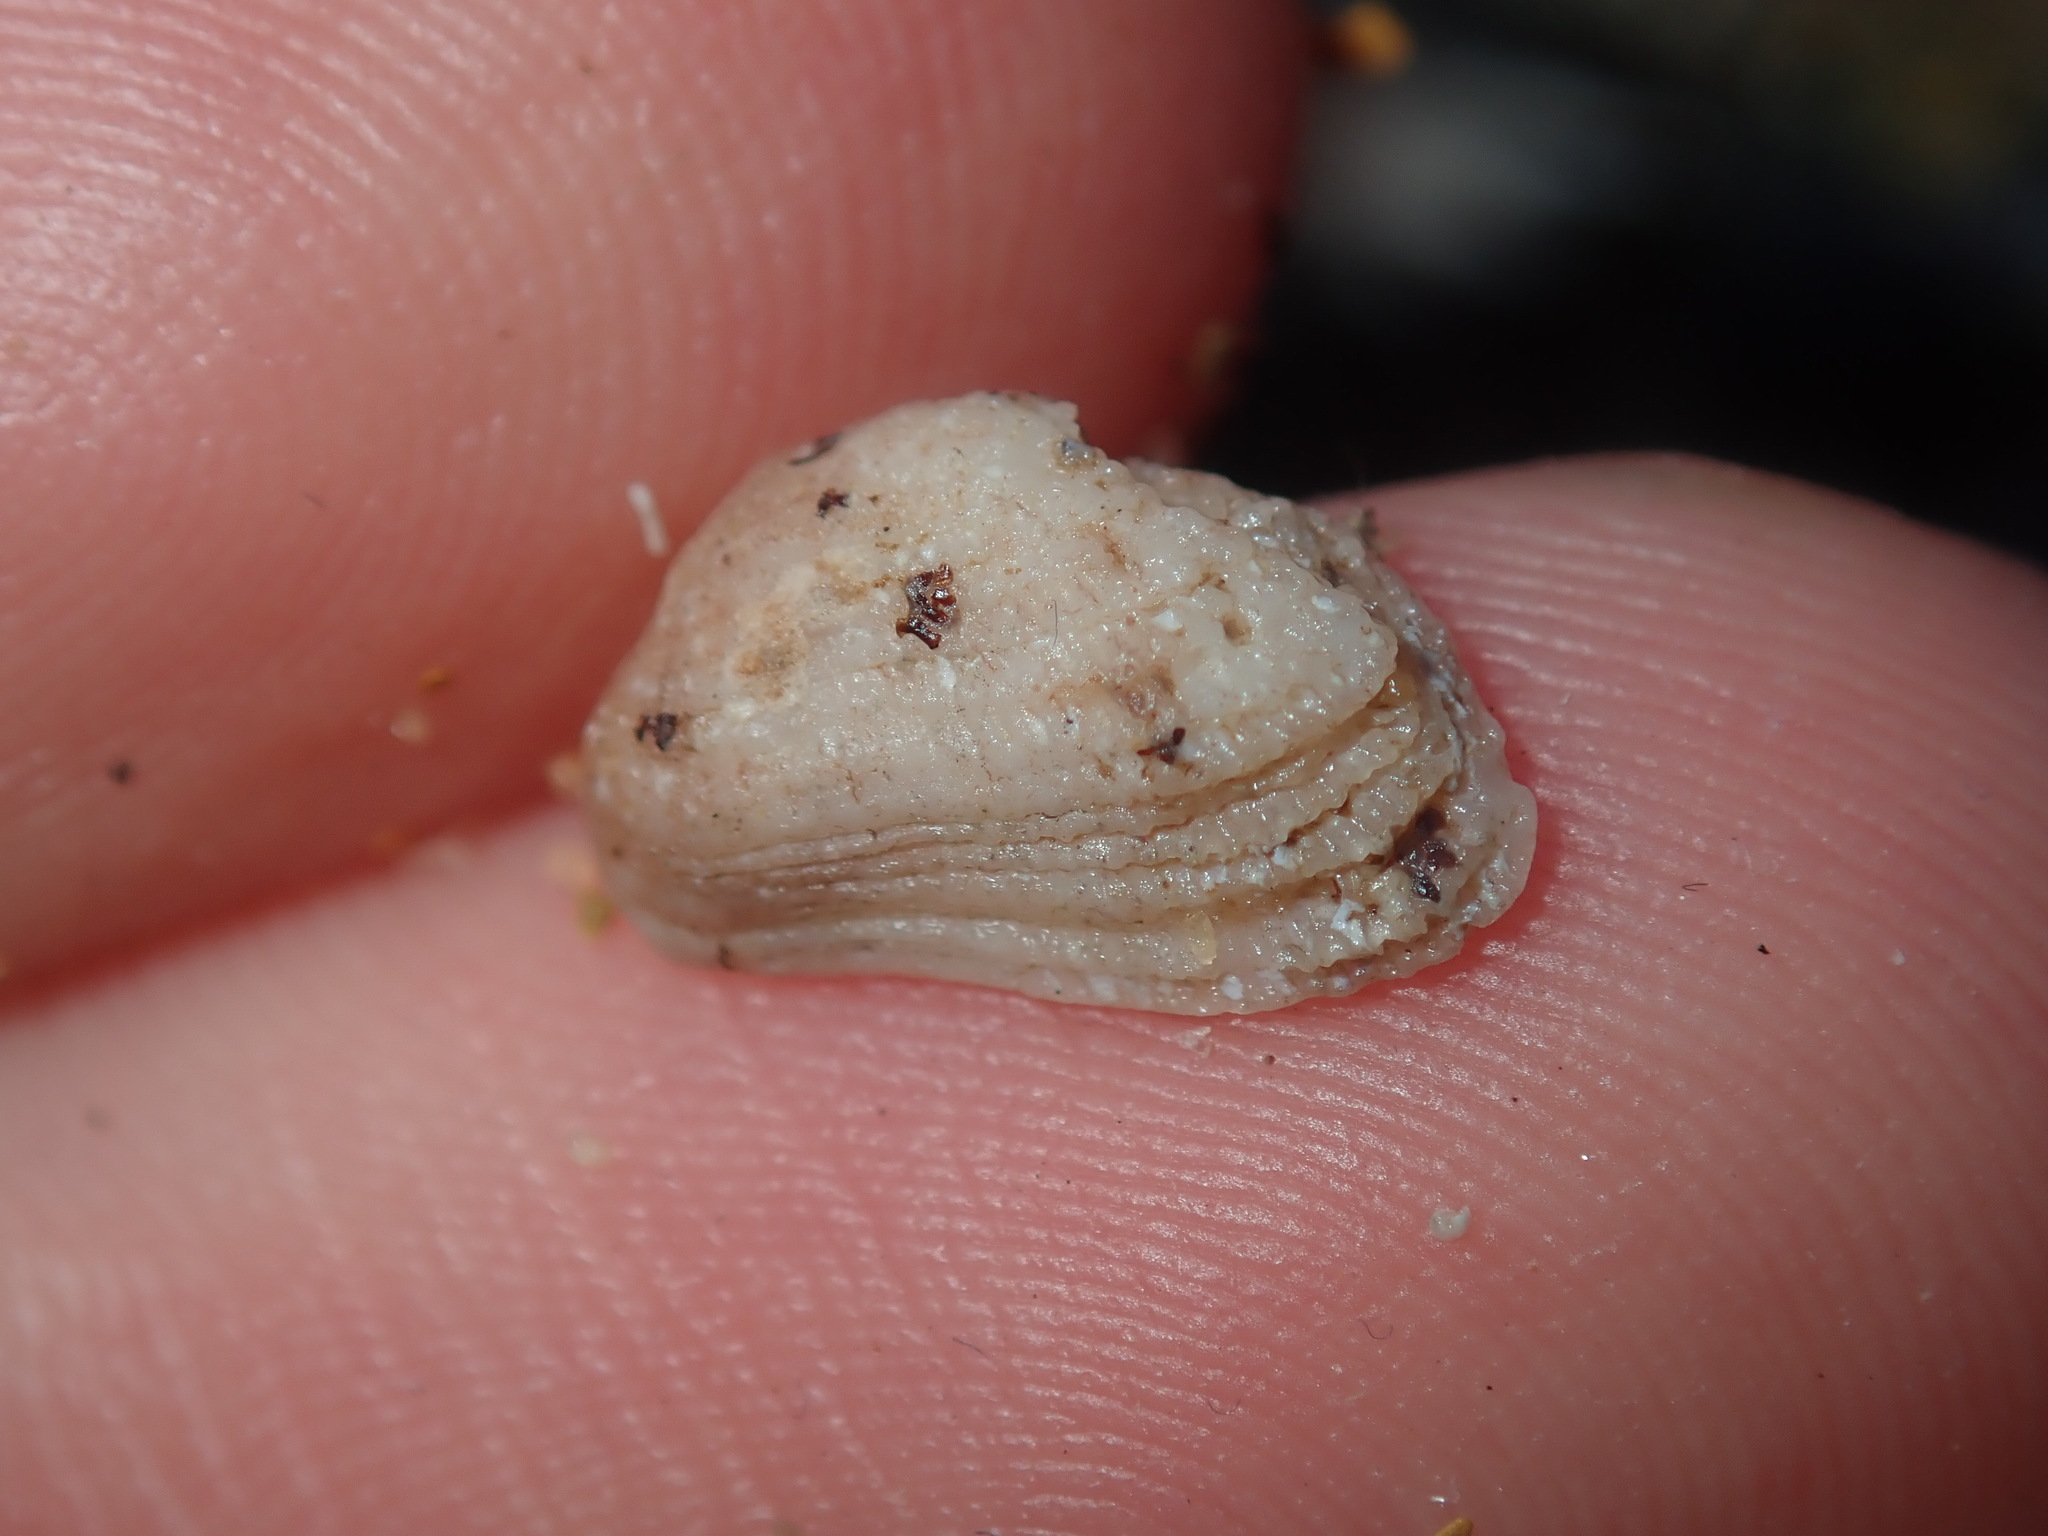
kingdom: Animalia
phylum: Mollusca
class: Bivalvia
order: Arcida
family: Arcidae
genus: Acar
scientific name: Acar botanica
